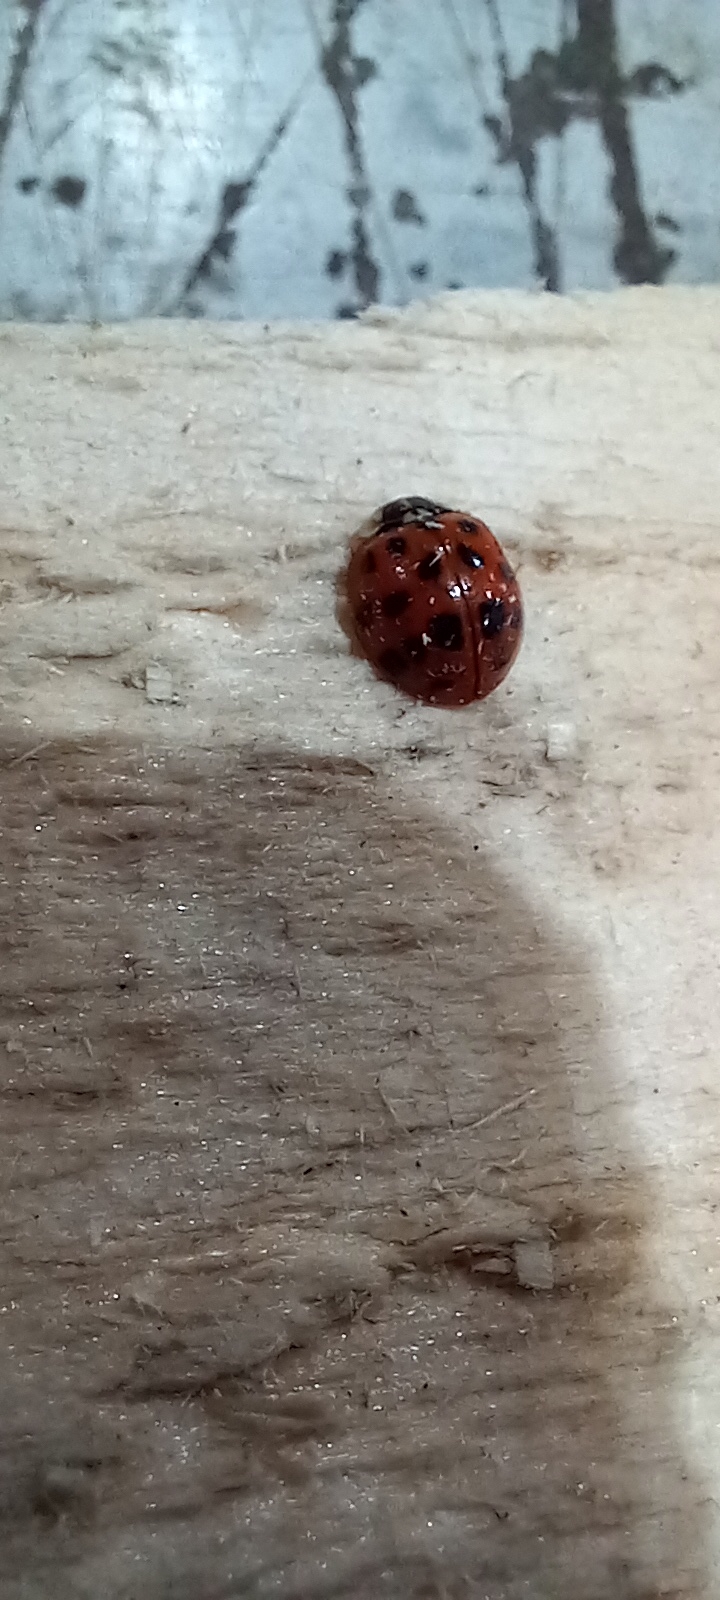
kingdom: Animalia
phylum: Arthropoda
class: Insecta
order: Coleoptera
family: Coccinellidae
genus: Harmonia
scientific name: Harmonia axyridis
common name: Harlequin ladybird
